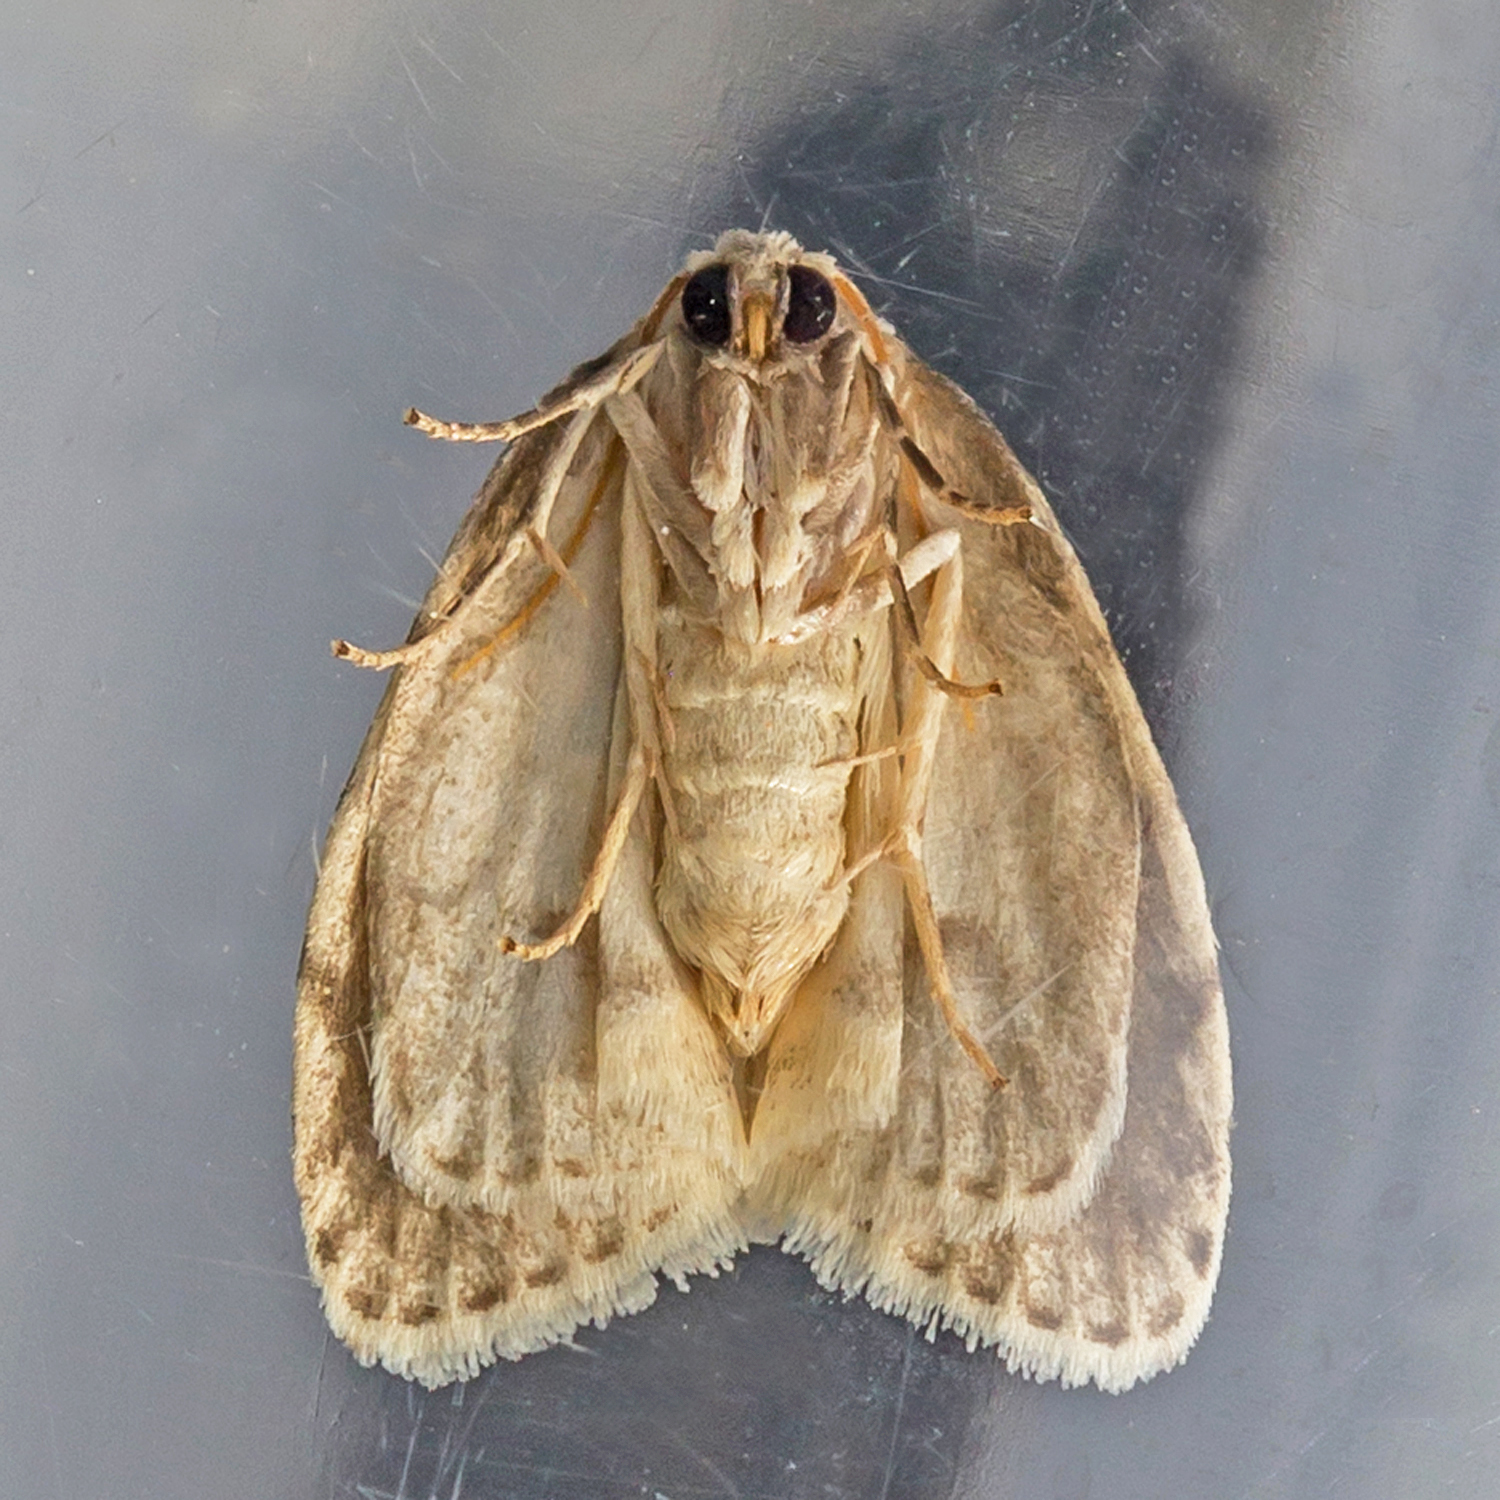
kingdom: Animalia
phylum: Arthropoda
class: Insecta
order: Lepidoptera
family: Erebidae
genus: Clemensia
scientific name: Clemensia albata
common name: Little white lichen moth
